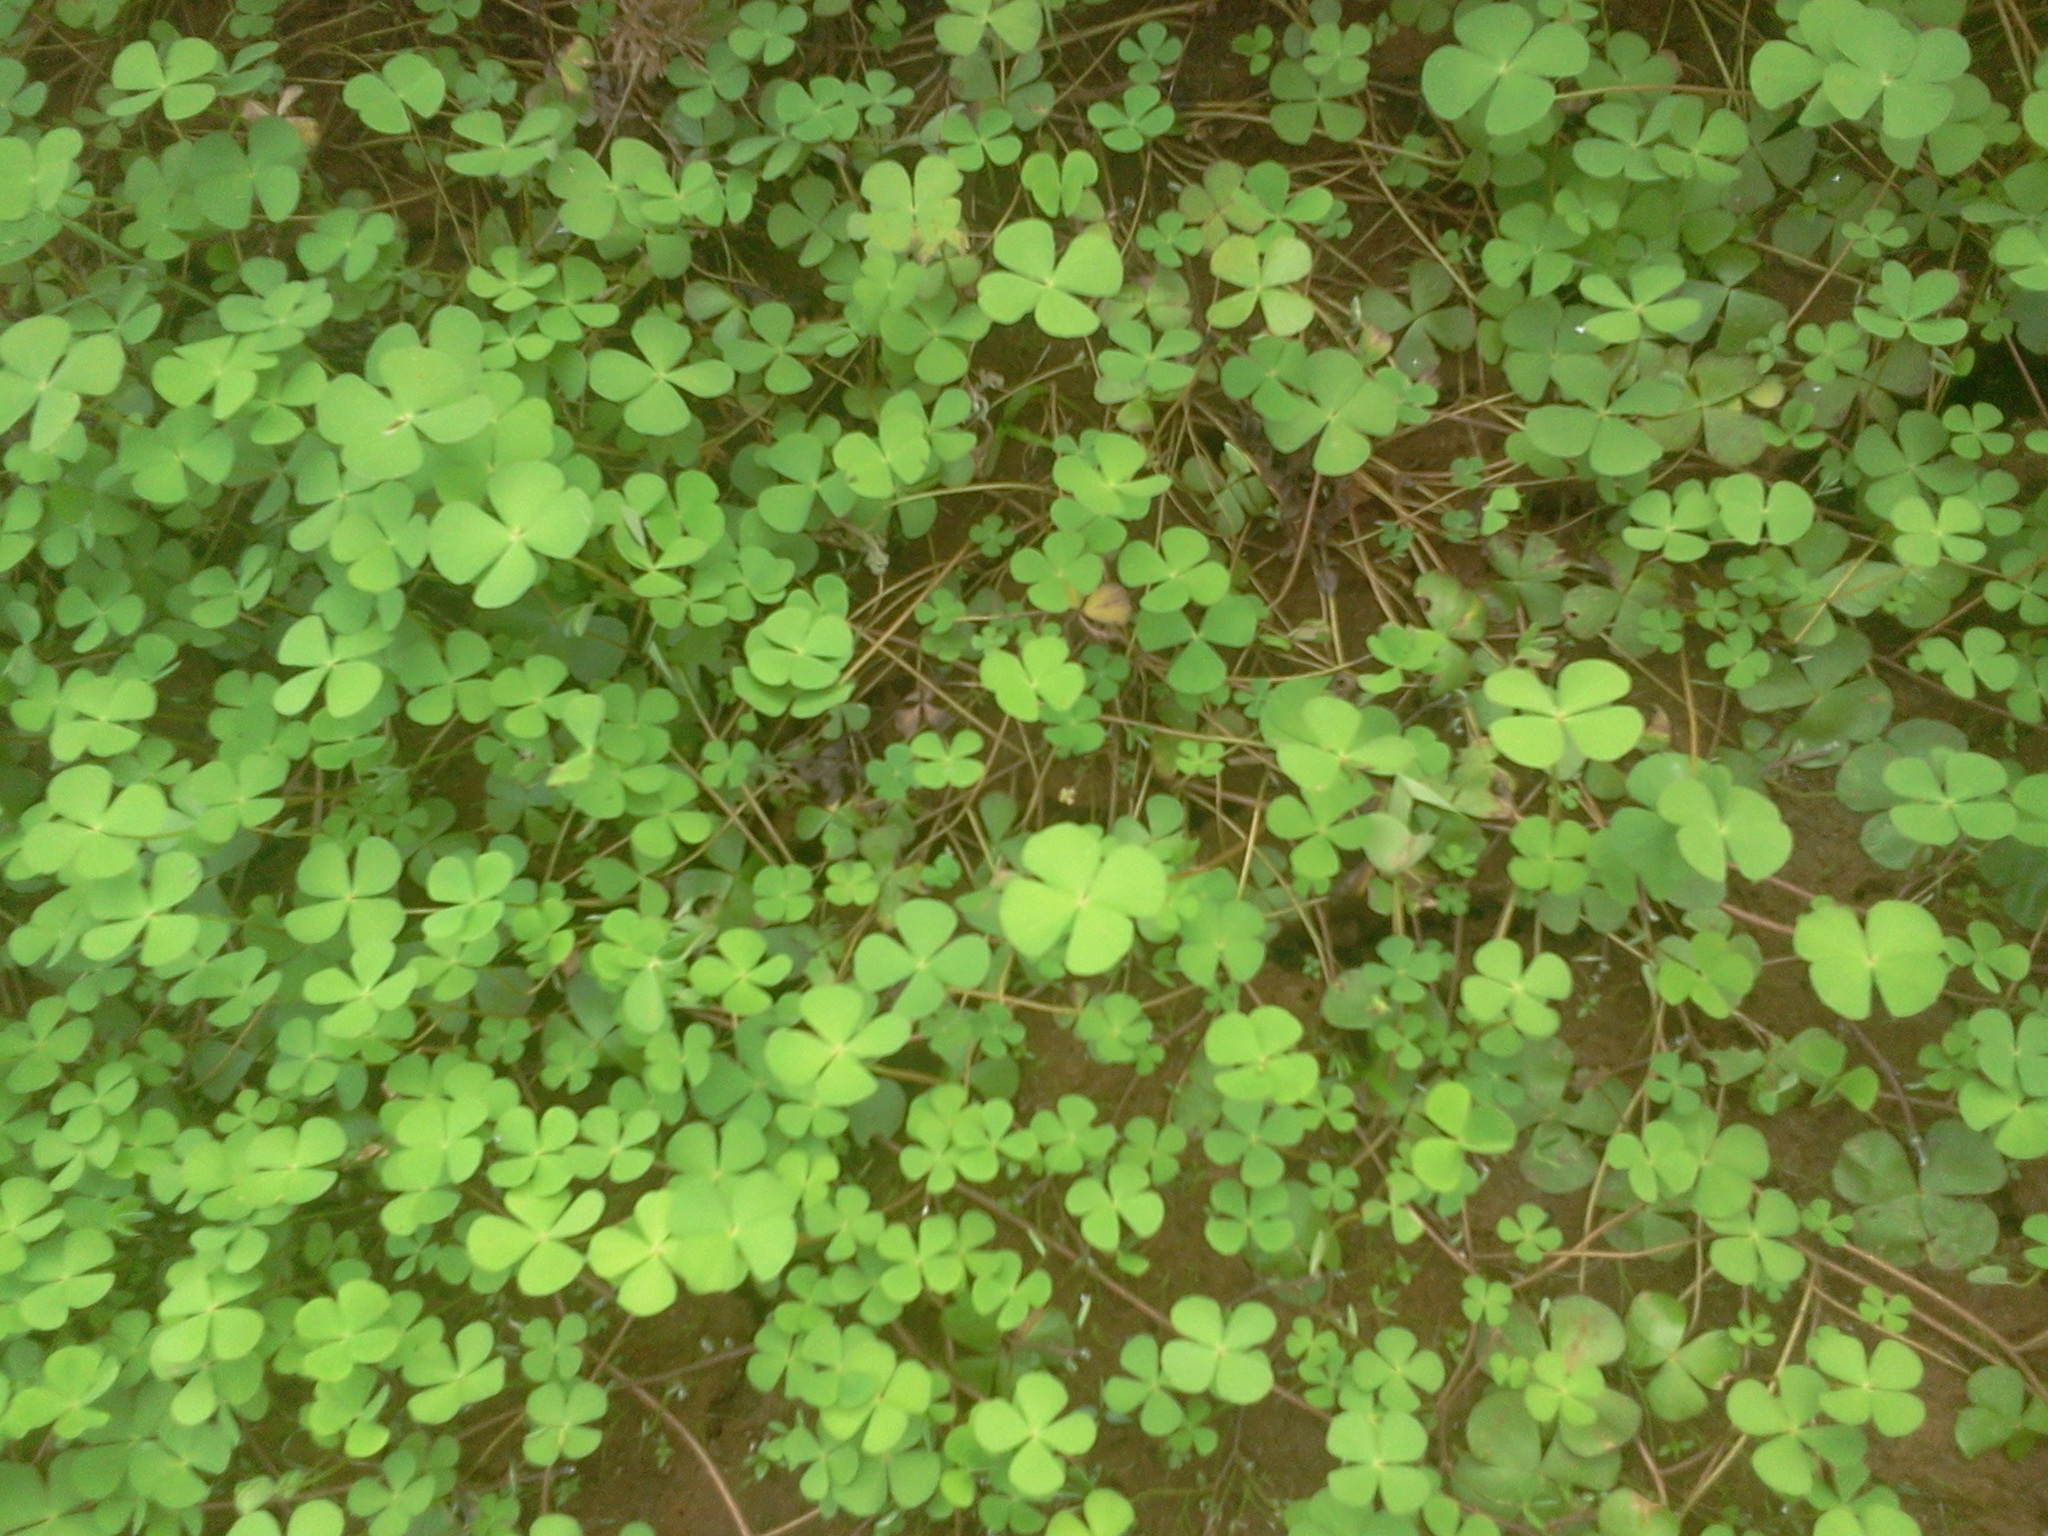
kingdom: Plantae
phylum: Tracheophyta
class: Polypodiopsida
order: Salviniales
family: Marsileaceae
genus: Marsilea
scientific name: Marsilea quadrifolia
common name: Water shamrock
